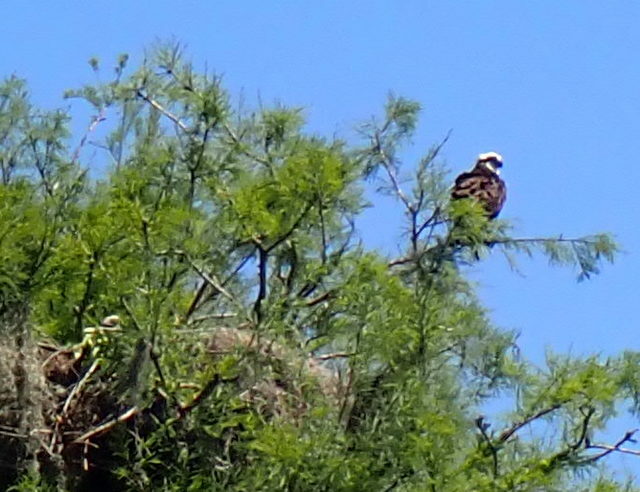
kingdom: Animalia
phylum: Chordata
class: Aves
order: Accipitriformes
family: Pandionidae
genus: Pandion
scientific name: Pandion haliaetus
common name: Osprey
